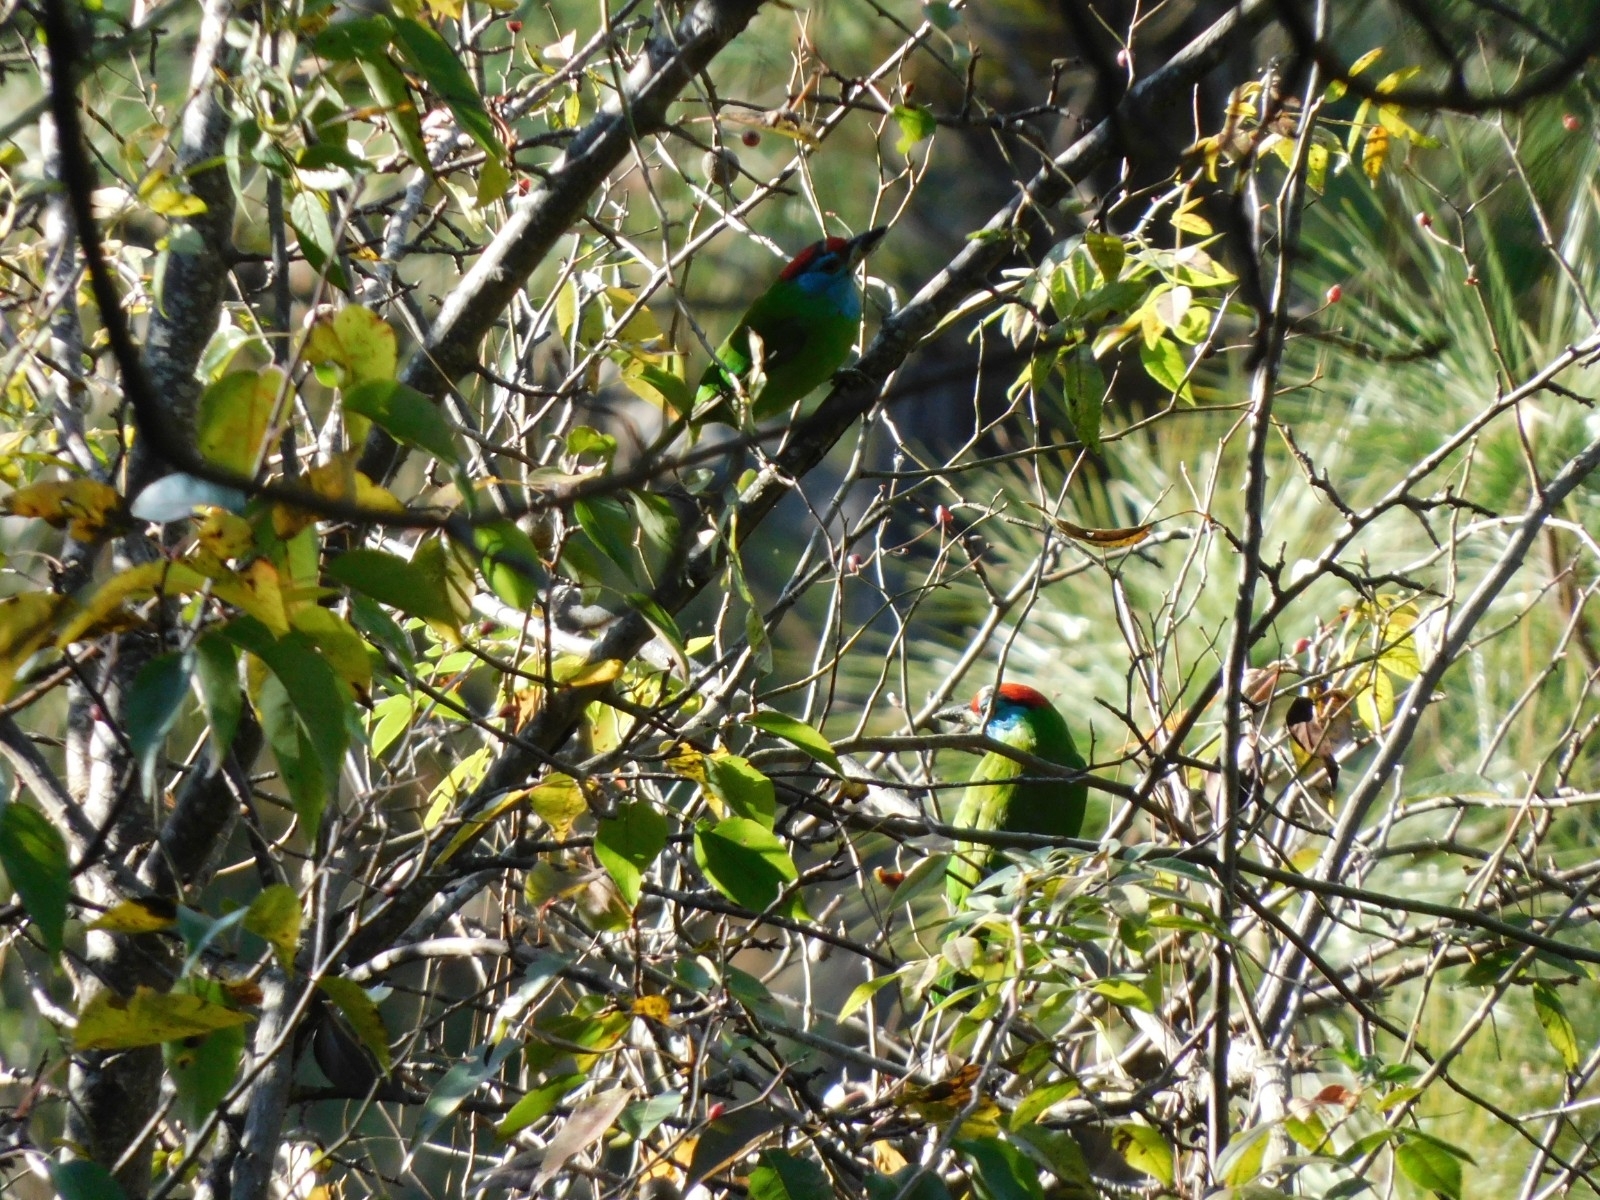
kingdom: Animalia
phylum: Chordata
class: Aves
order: Piciformes
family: Megalaimidae
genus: Psilopogon
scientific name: Psilopogon asiaticus
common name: Blue-throated barbet
